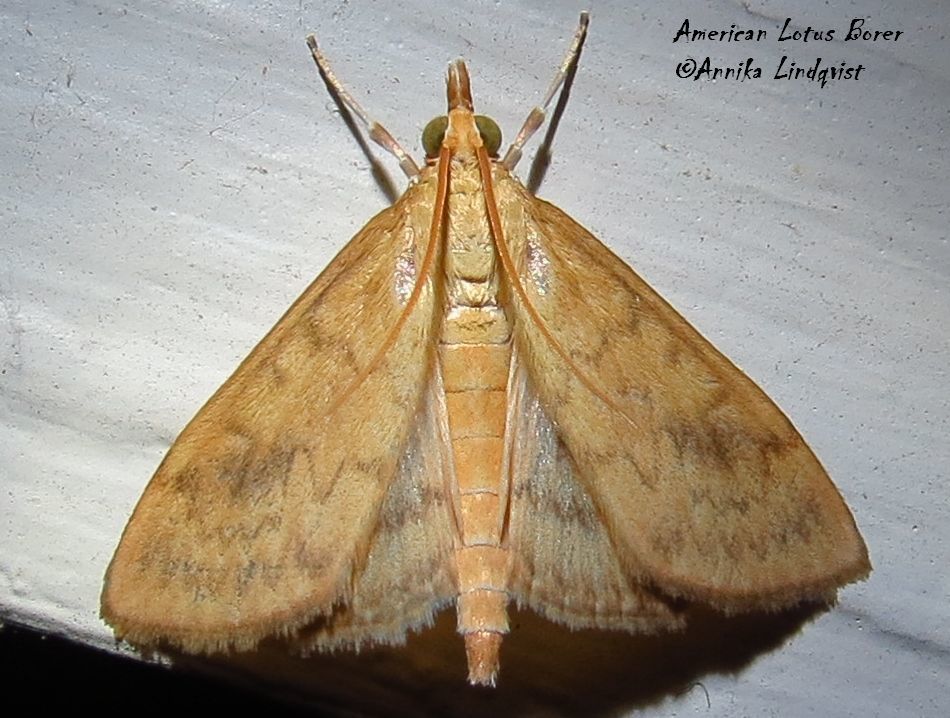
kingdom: Animalia
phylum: Arthropoda
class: Insecta
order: Lepidoptera
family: Crambidae
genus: Ostrinia
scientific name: Ostrinia penitalis
